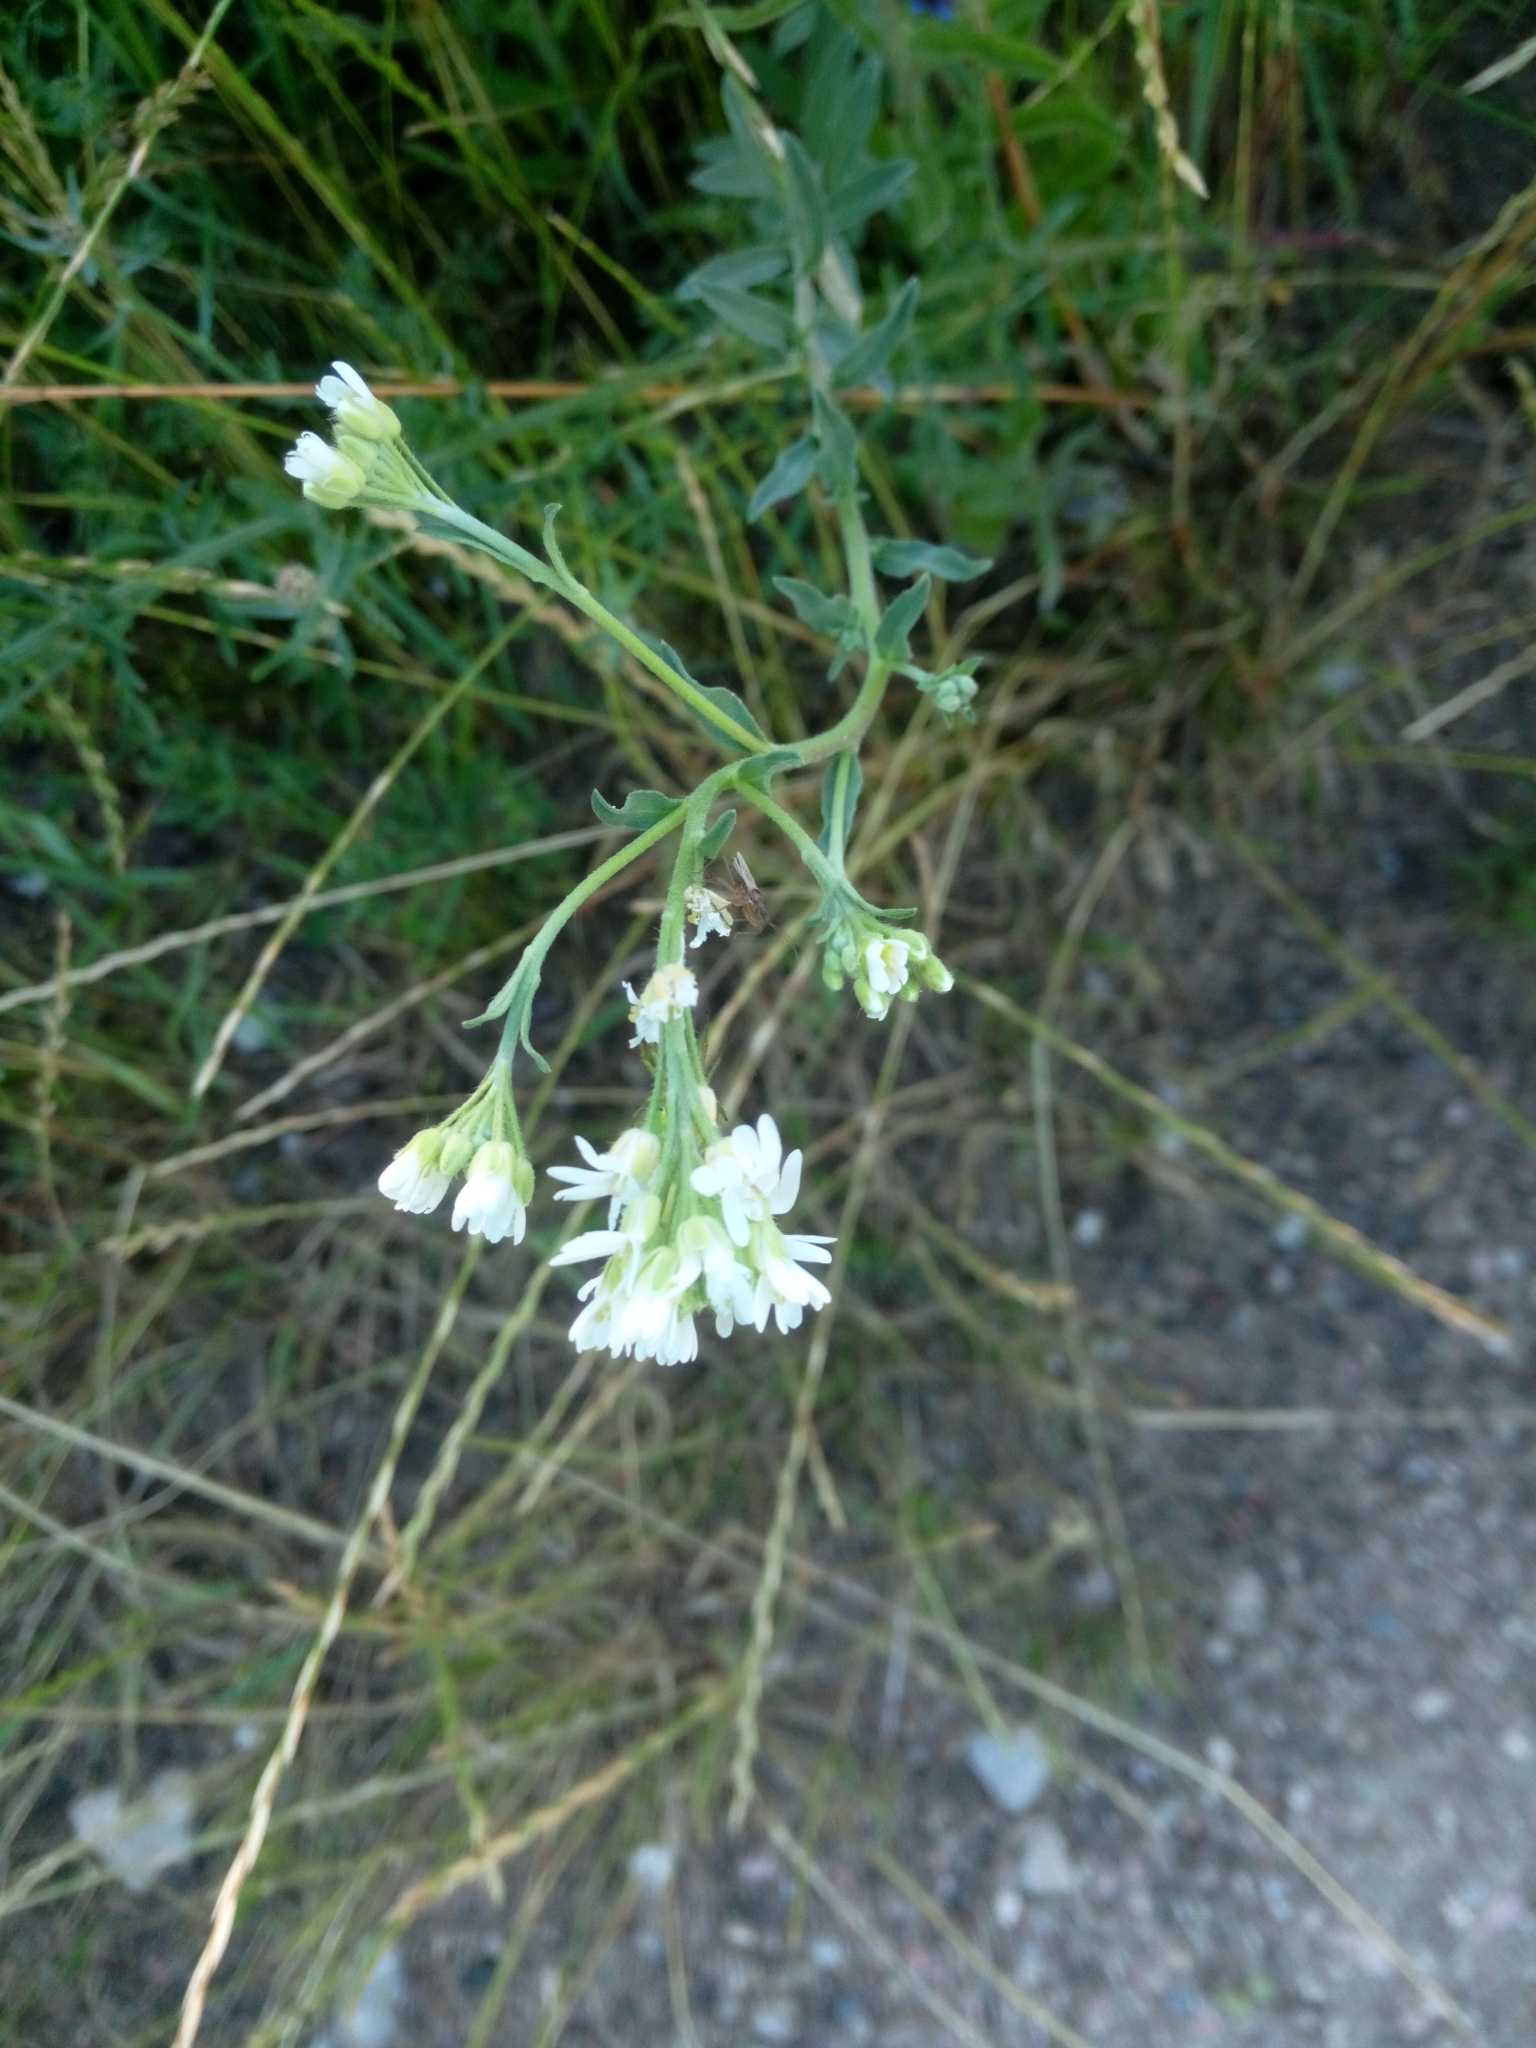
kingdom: Plantae
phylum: Tracheophyta
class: Magnoliopsida
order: Brassicales
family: Brassicaceae
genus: Berteroa
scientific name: Berteroa incana
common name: Hoary alison
